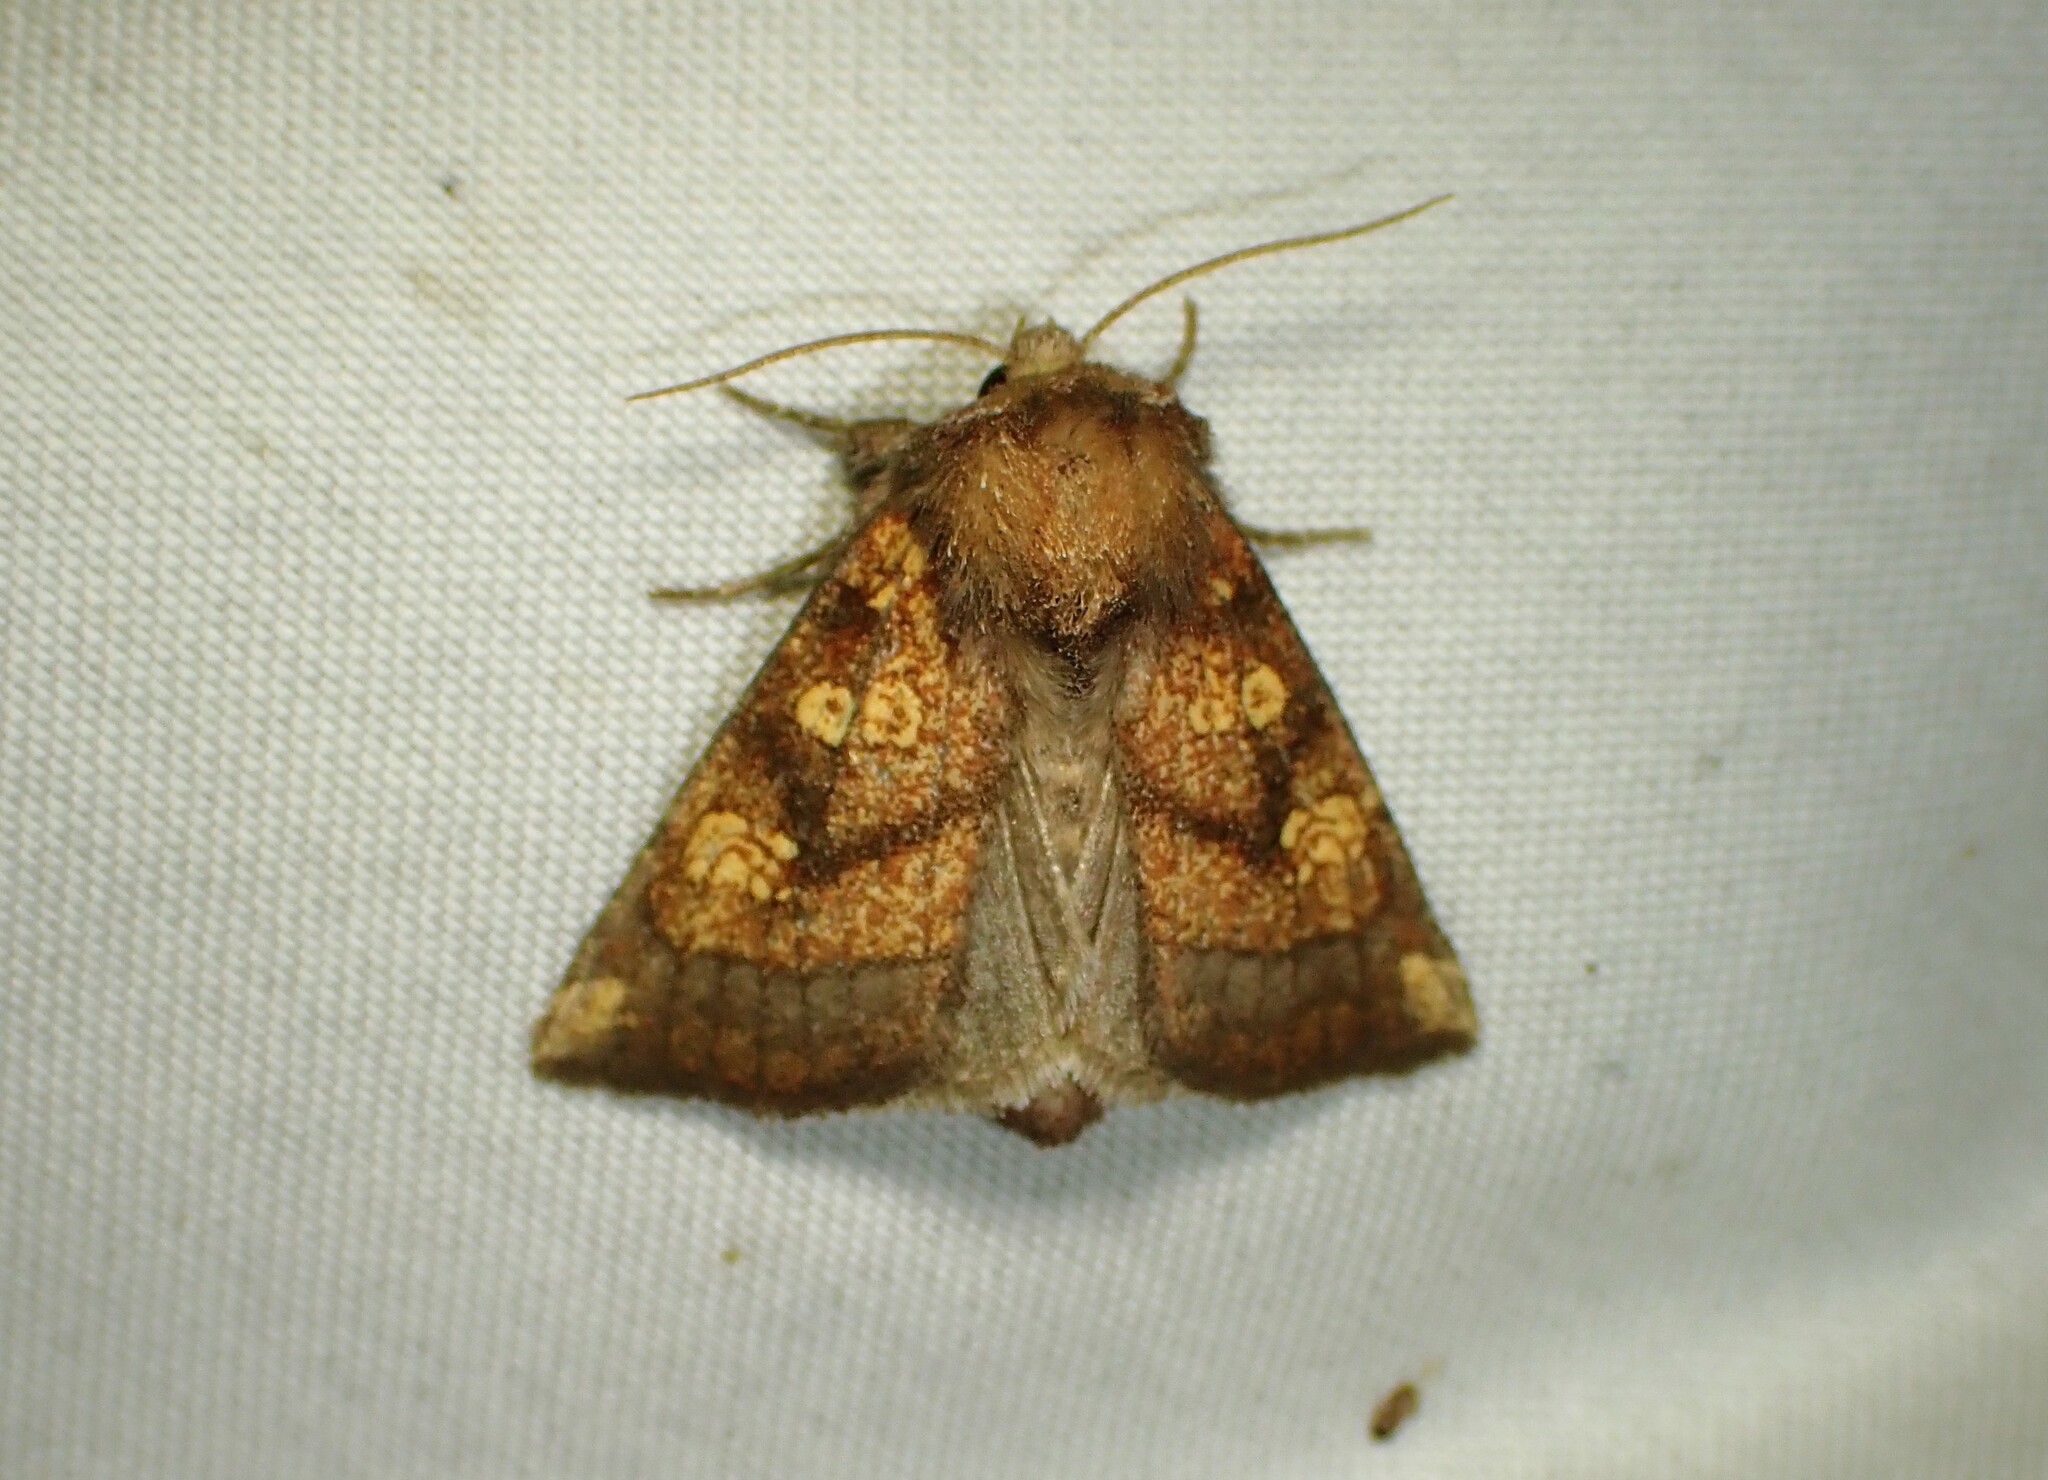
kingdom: Animalia
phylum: Arthropoda
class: Insecta
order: Lepidoptera
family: Noctuidae
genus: Papaipema
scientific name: Papaipema impecuniosa
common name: Aster borer moth
